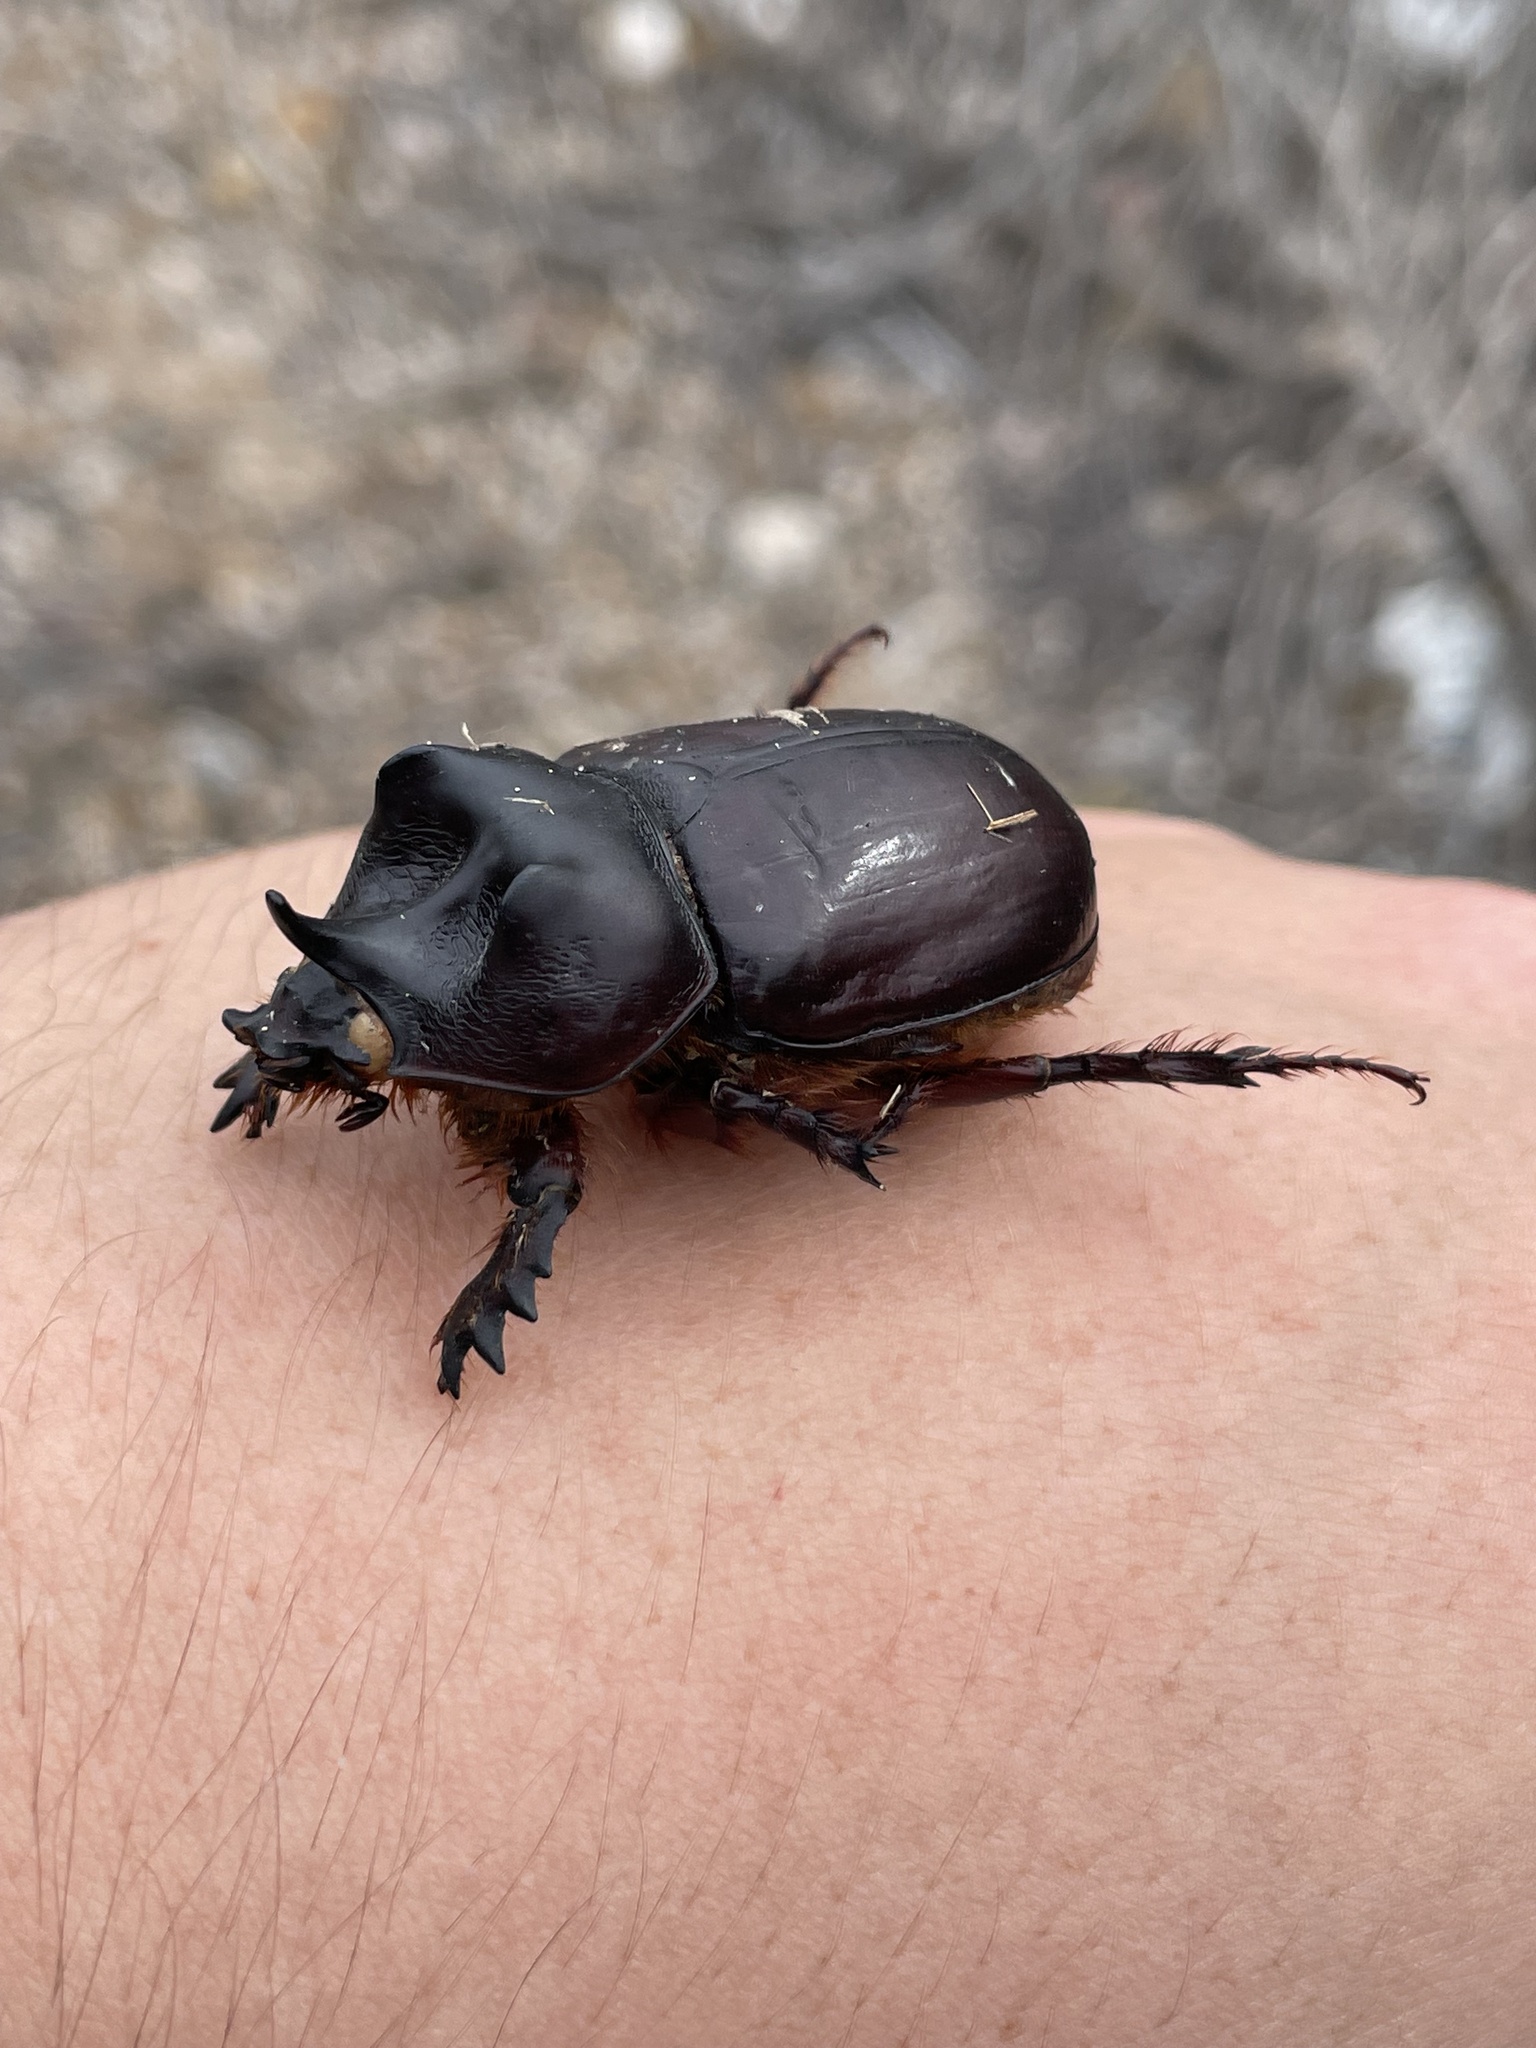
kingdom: Animalia
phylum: Arthropoda
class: Insecta
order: Coleoptera
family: Scarabaeidae
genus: Strategus
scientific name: Strategus aloeus
